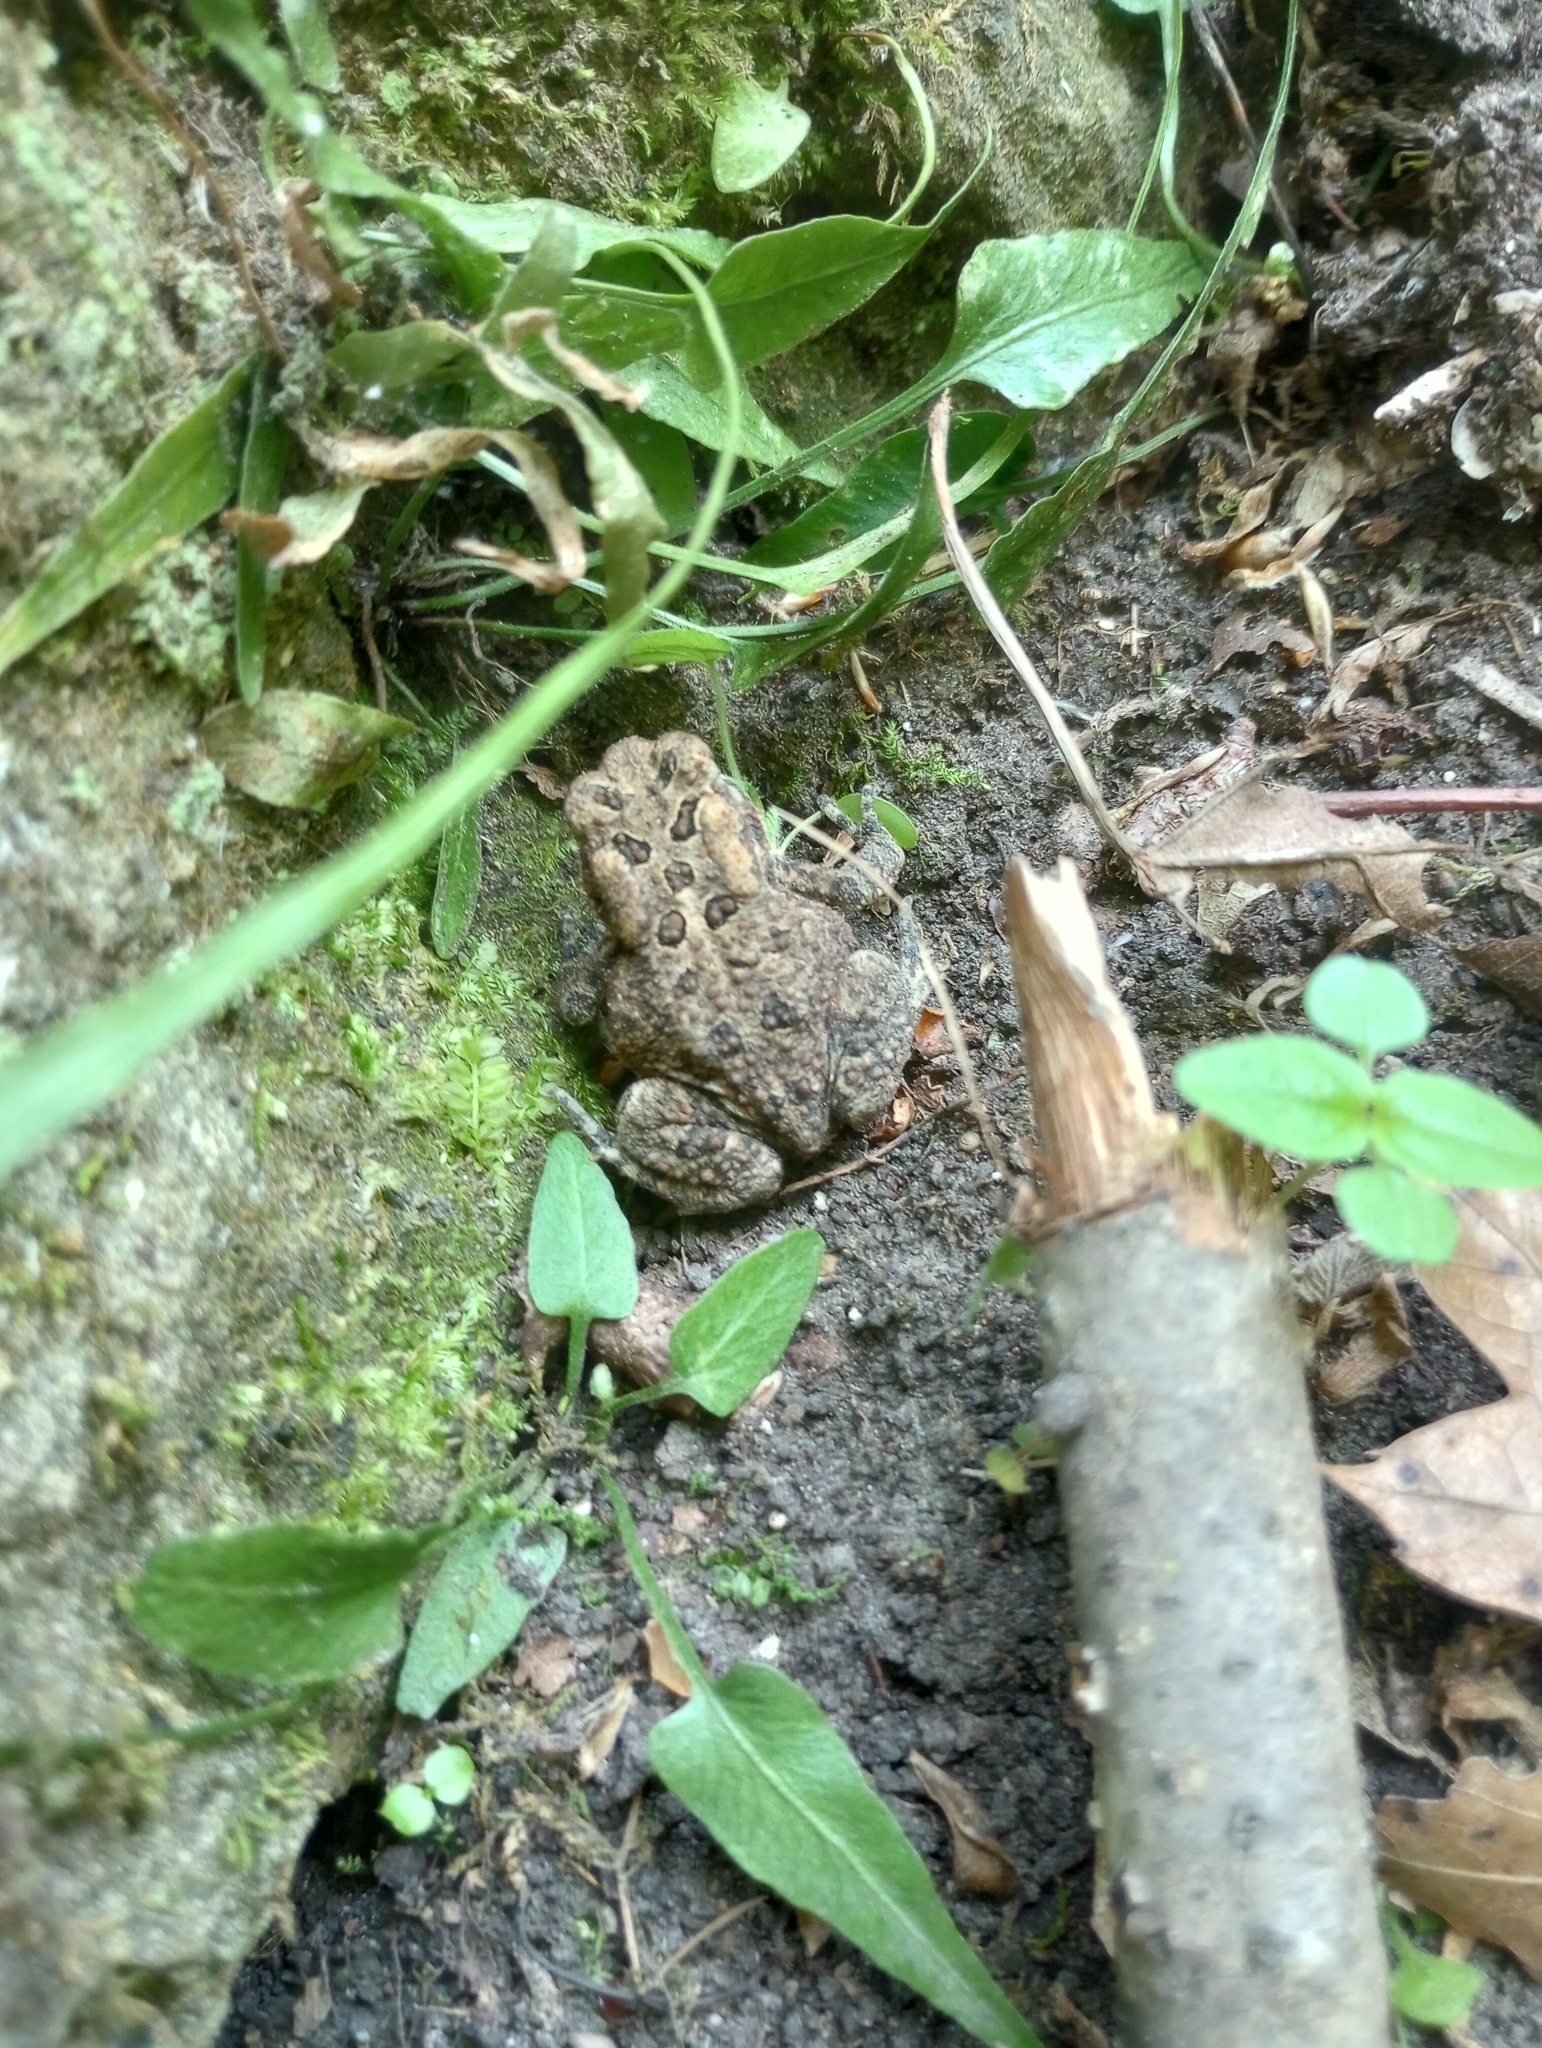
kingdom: Animalia
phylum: Chordata
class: Amphibia
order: Anura
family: Bufonidae
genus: Anaxyrus
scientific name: Anaxyrus americanus
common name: American toad
